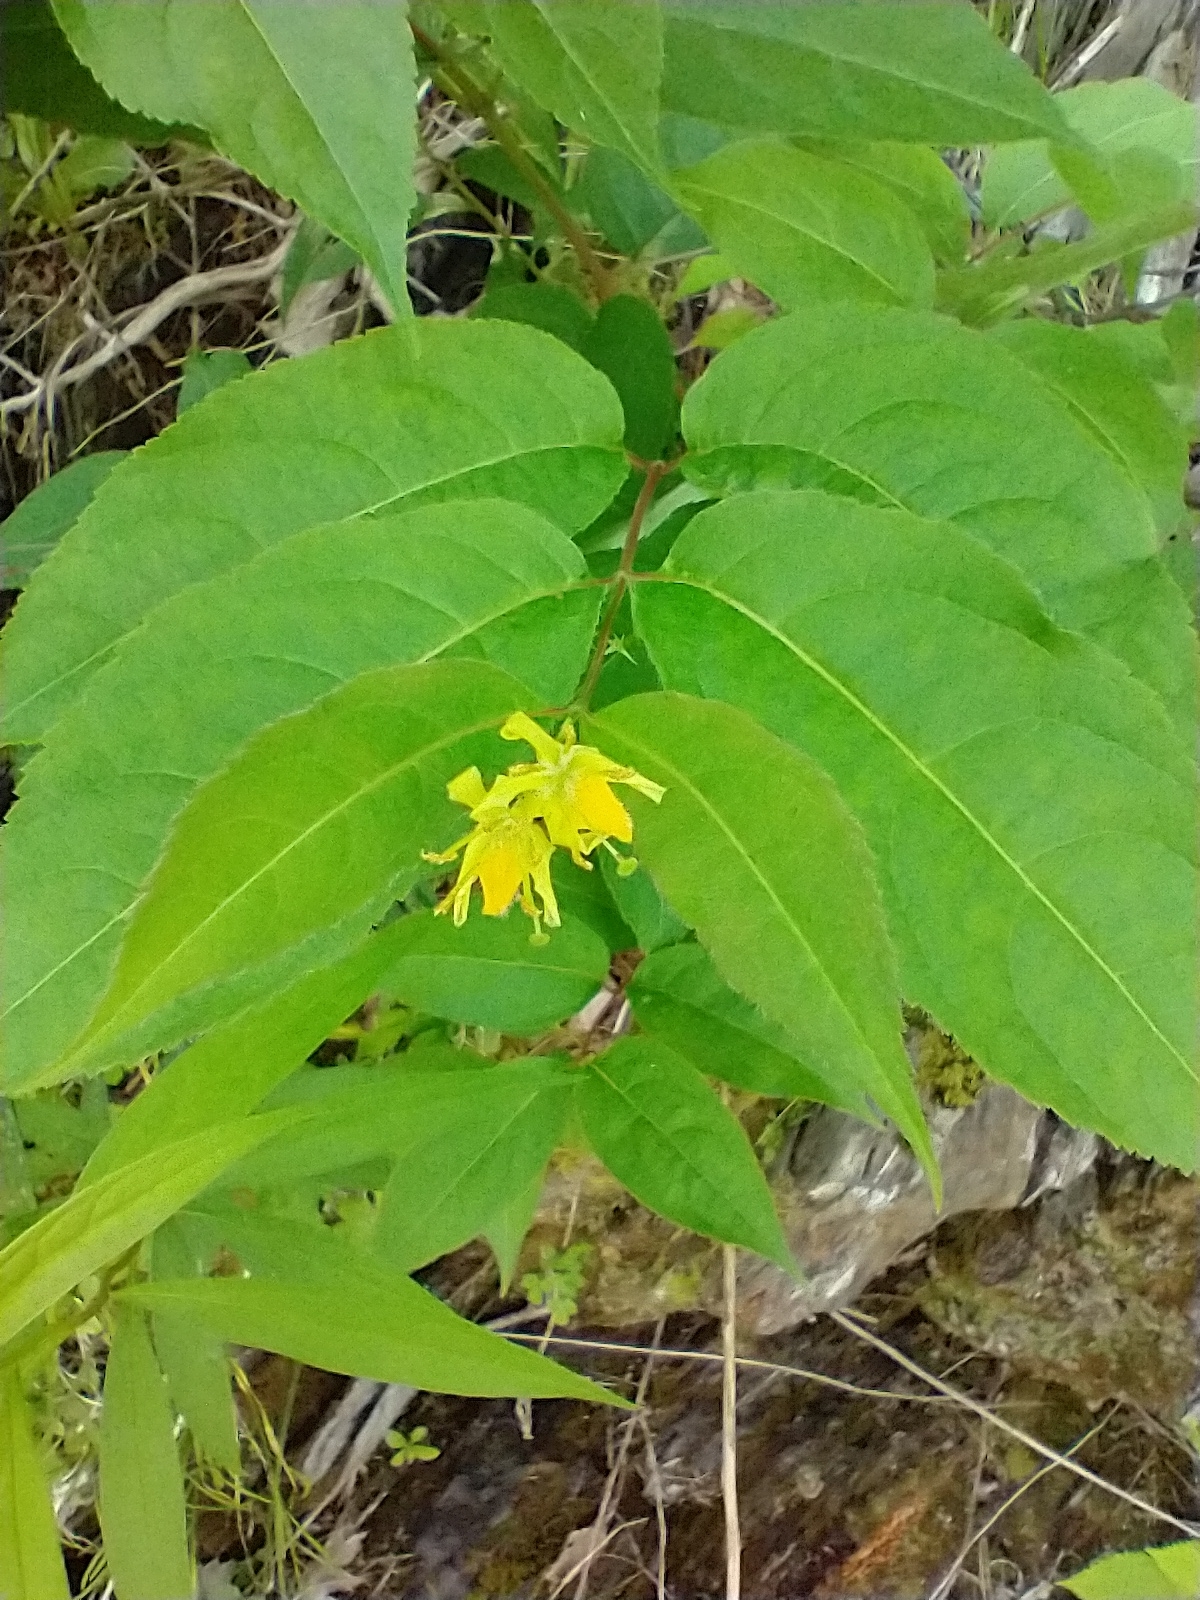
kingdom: Plantae
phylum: Tracheophyta
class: Magnoliopsida
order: Dipsacales
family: Caprifoliaceae
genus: Diervilla
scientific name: Diervilla lonicera
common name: Bush-honeysuckle
